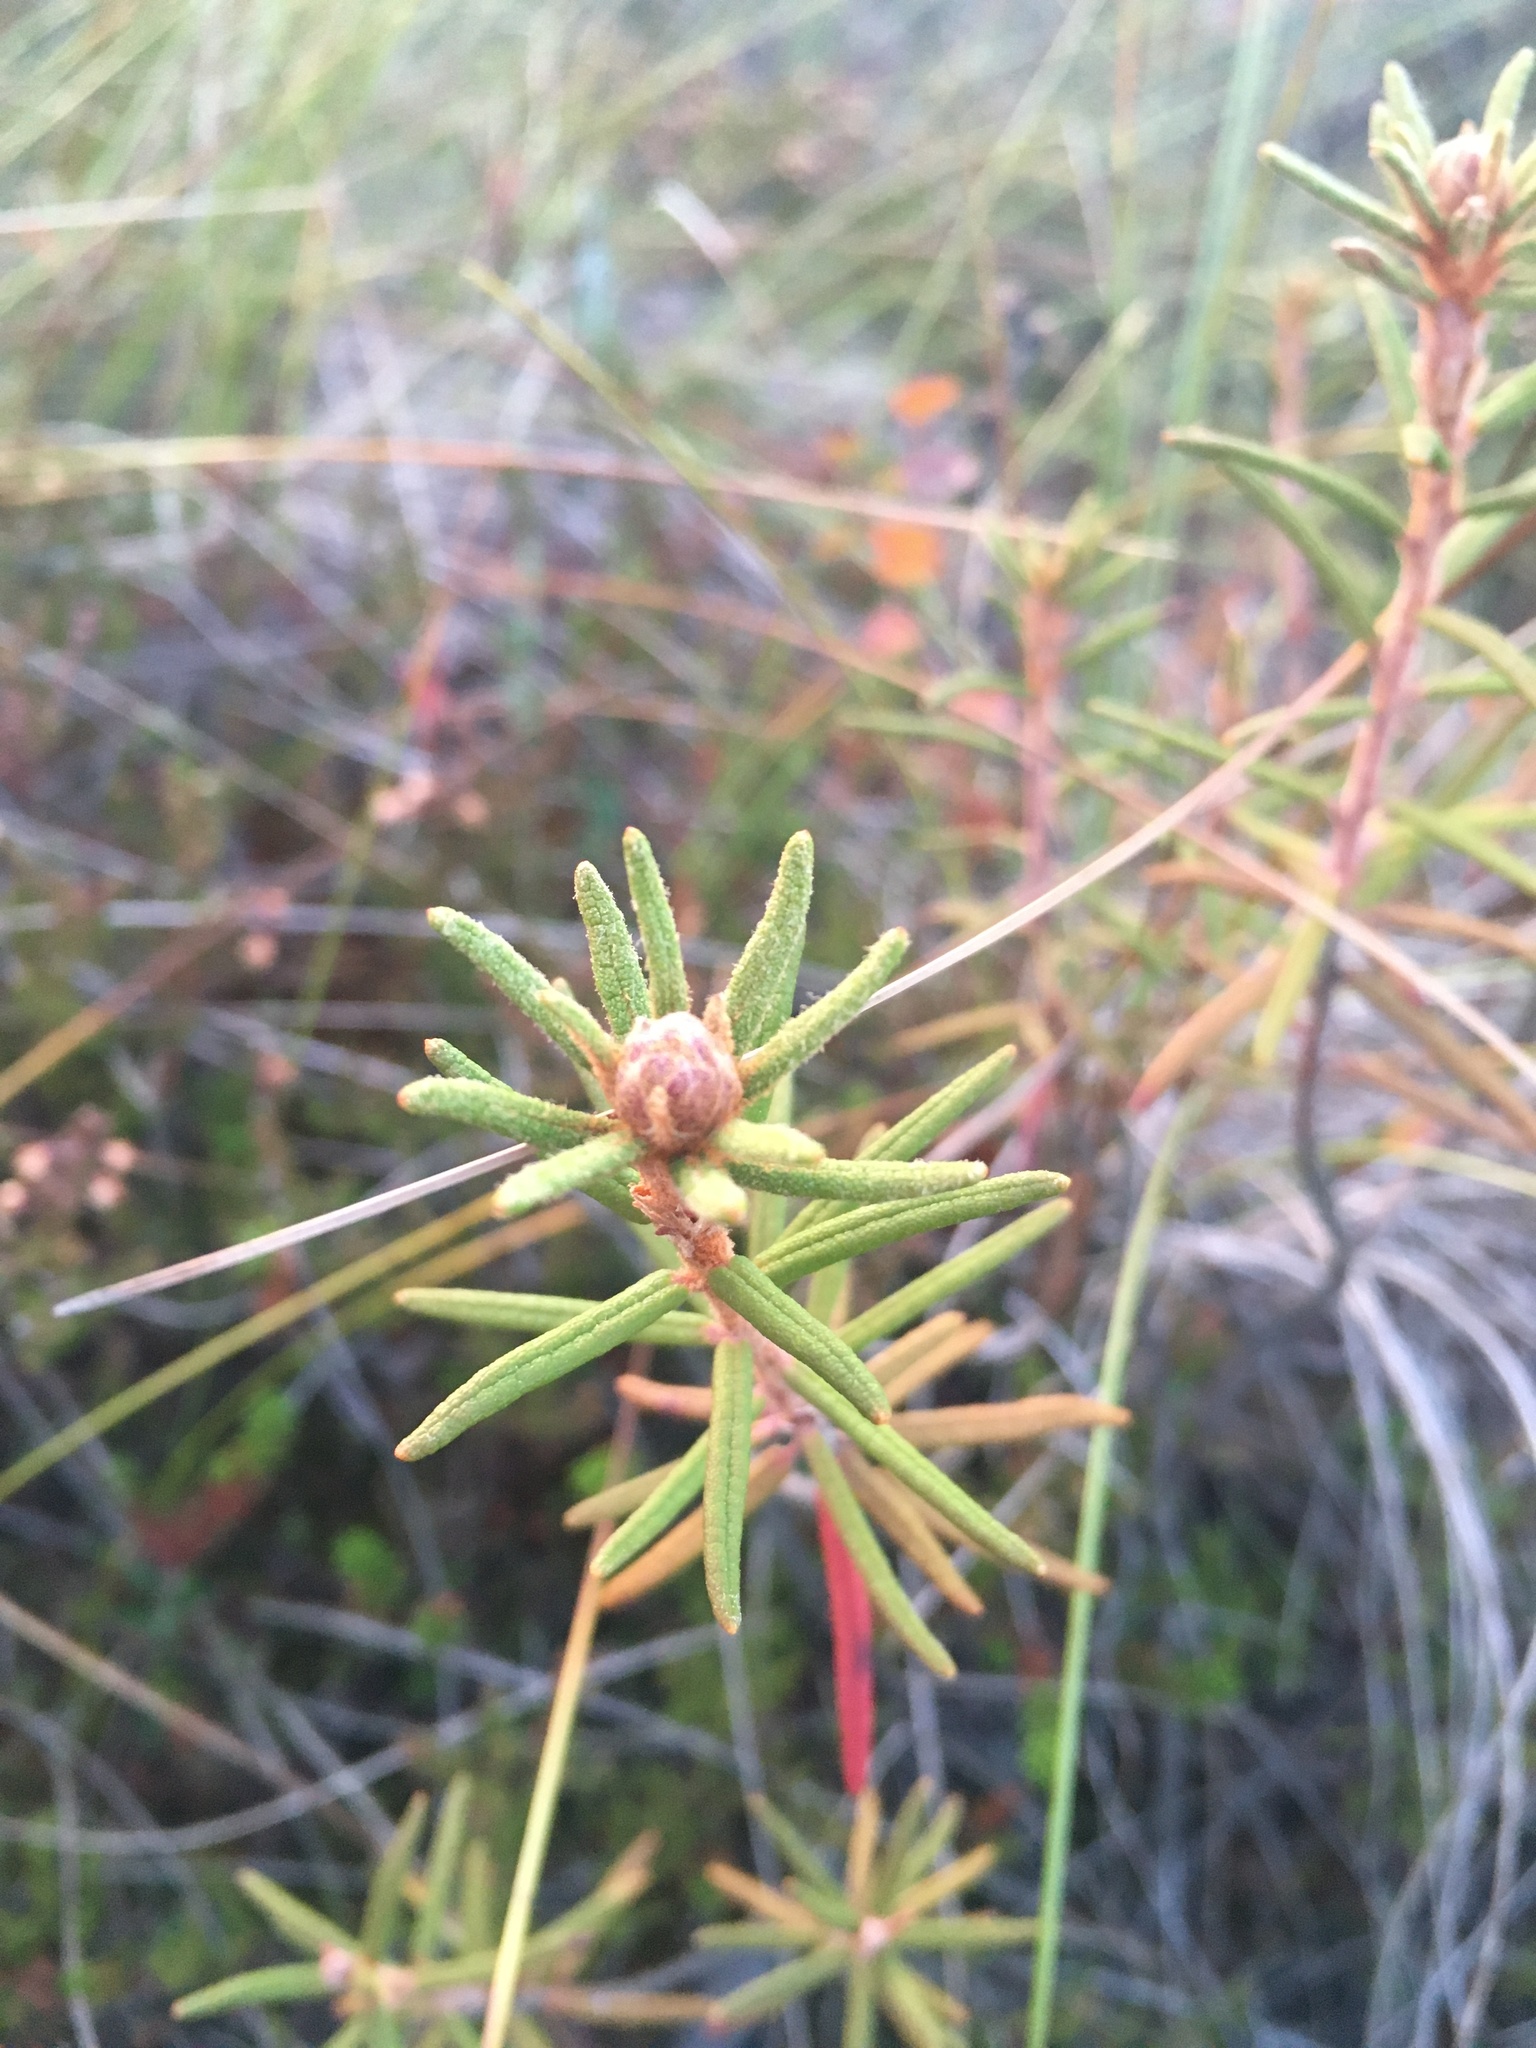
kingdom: Plantae
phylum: Tracheophyta
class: Magnoliopsida
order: Ericales
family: Ericaceae
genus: Rhododendron
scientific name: Rhododendron tomentosum
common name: Marsh labrador tea
